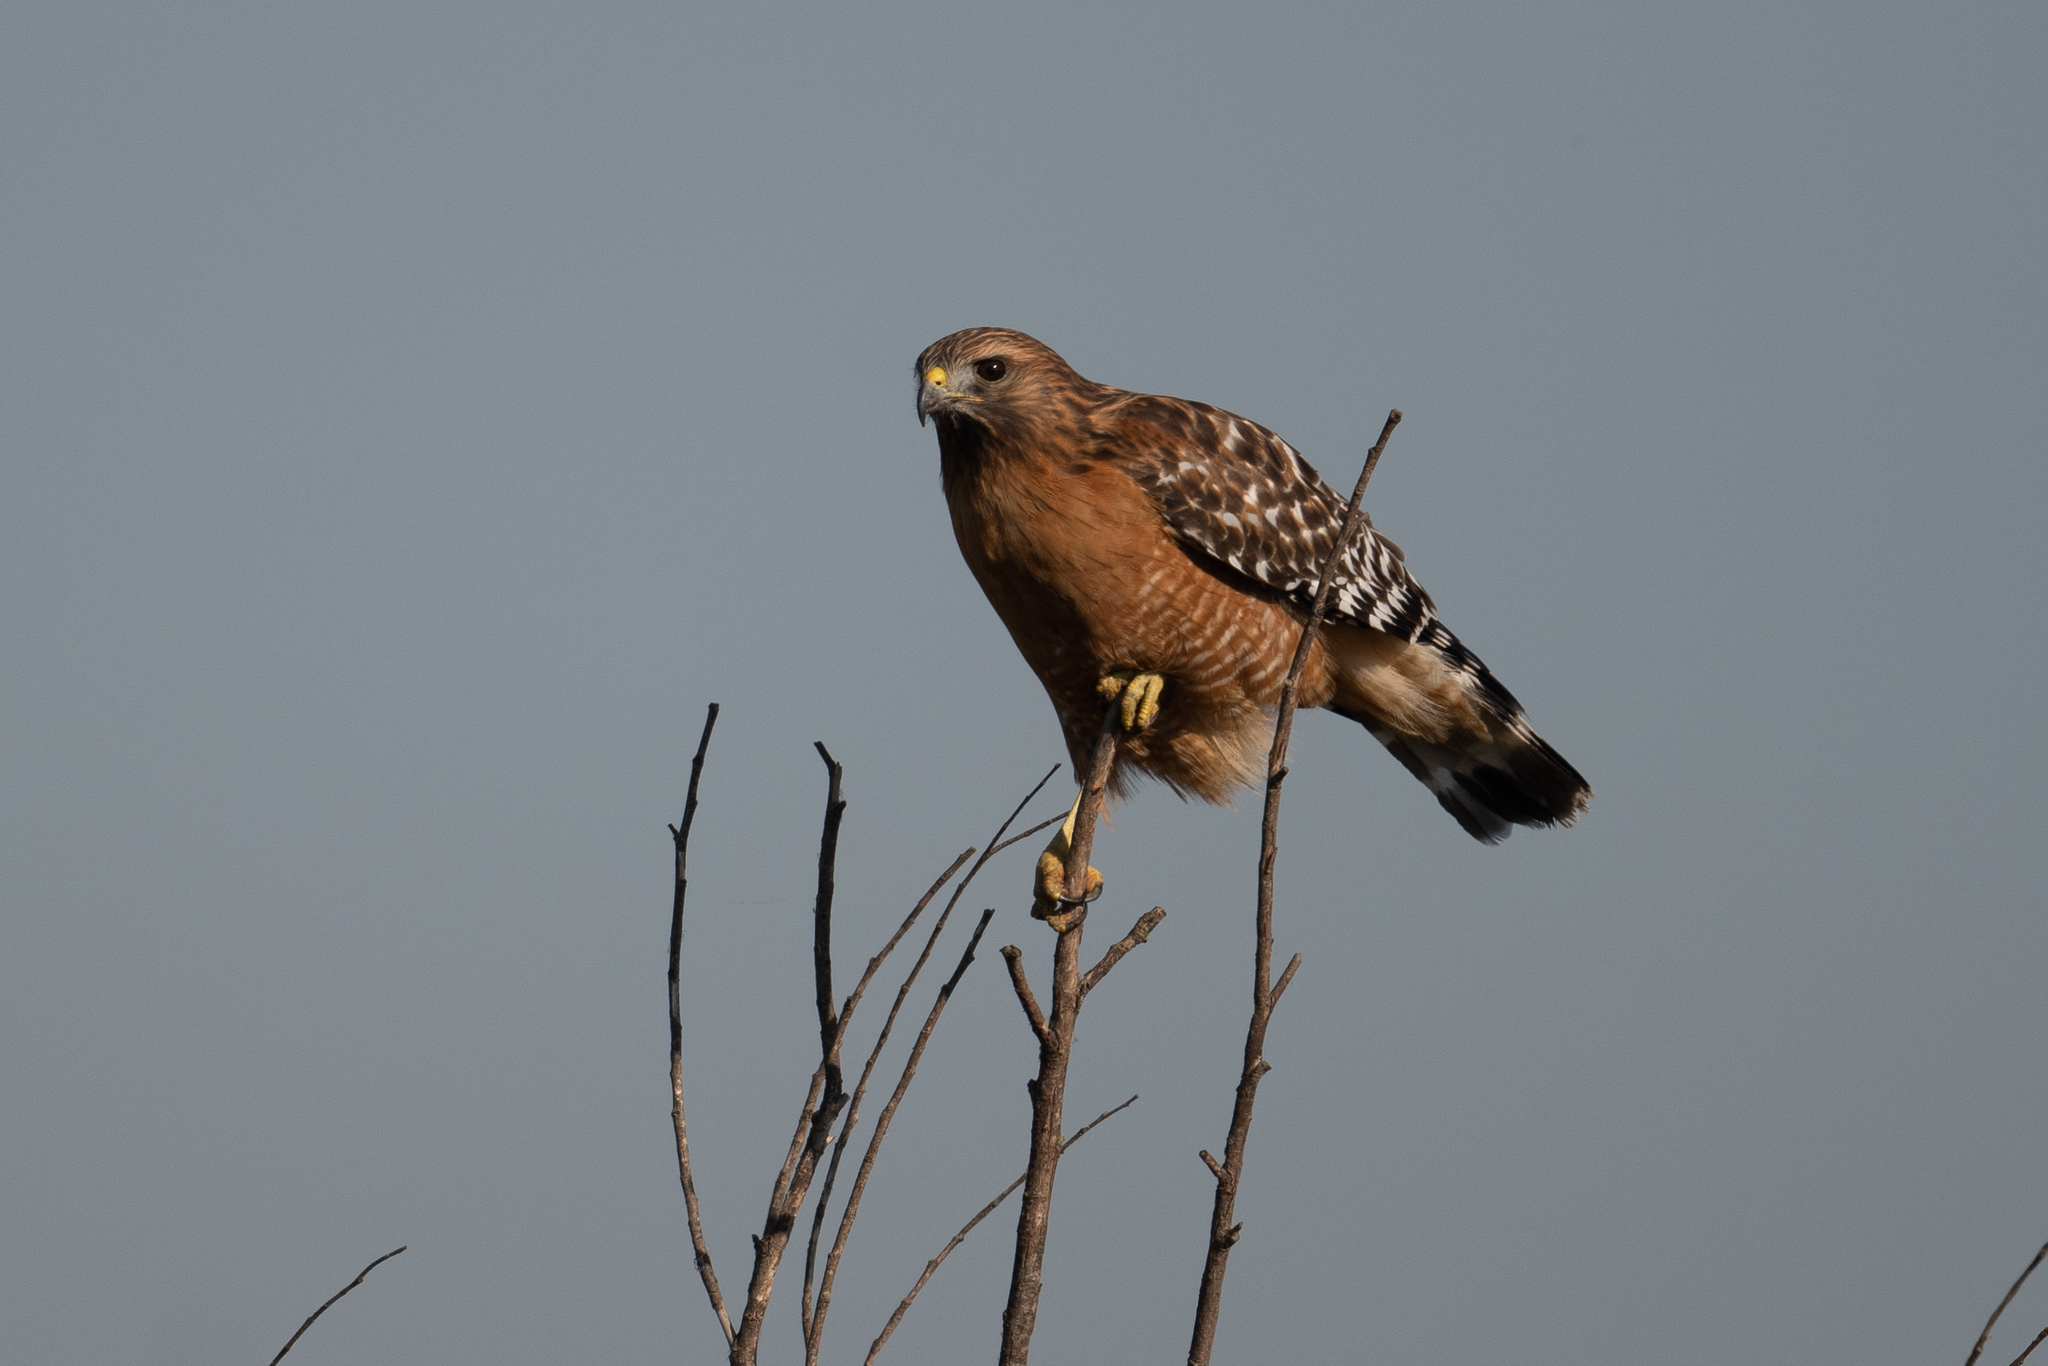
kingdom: Animalia
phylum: Chordata
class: Aves
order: Accipitriformes
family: Accipitridae
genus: Buteo
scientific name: Buteo lineatus
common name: Red-shouldered hawk
